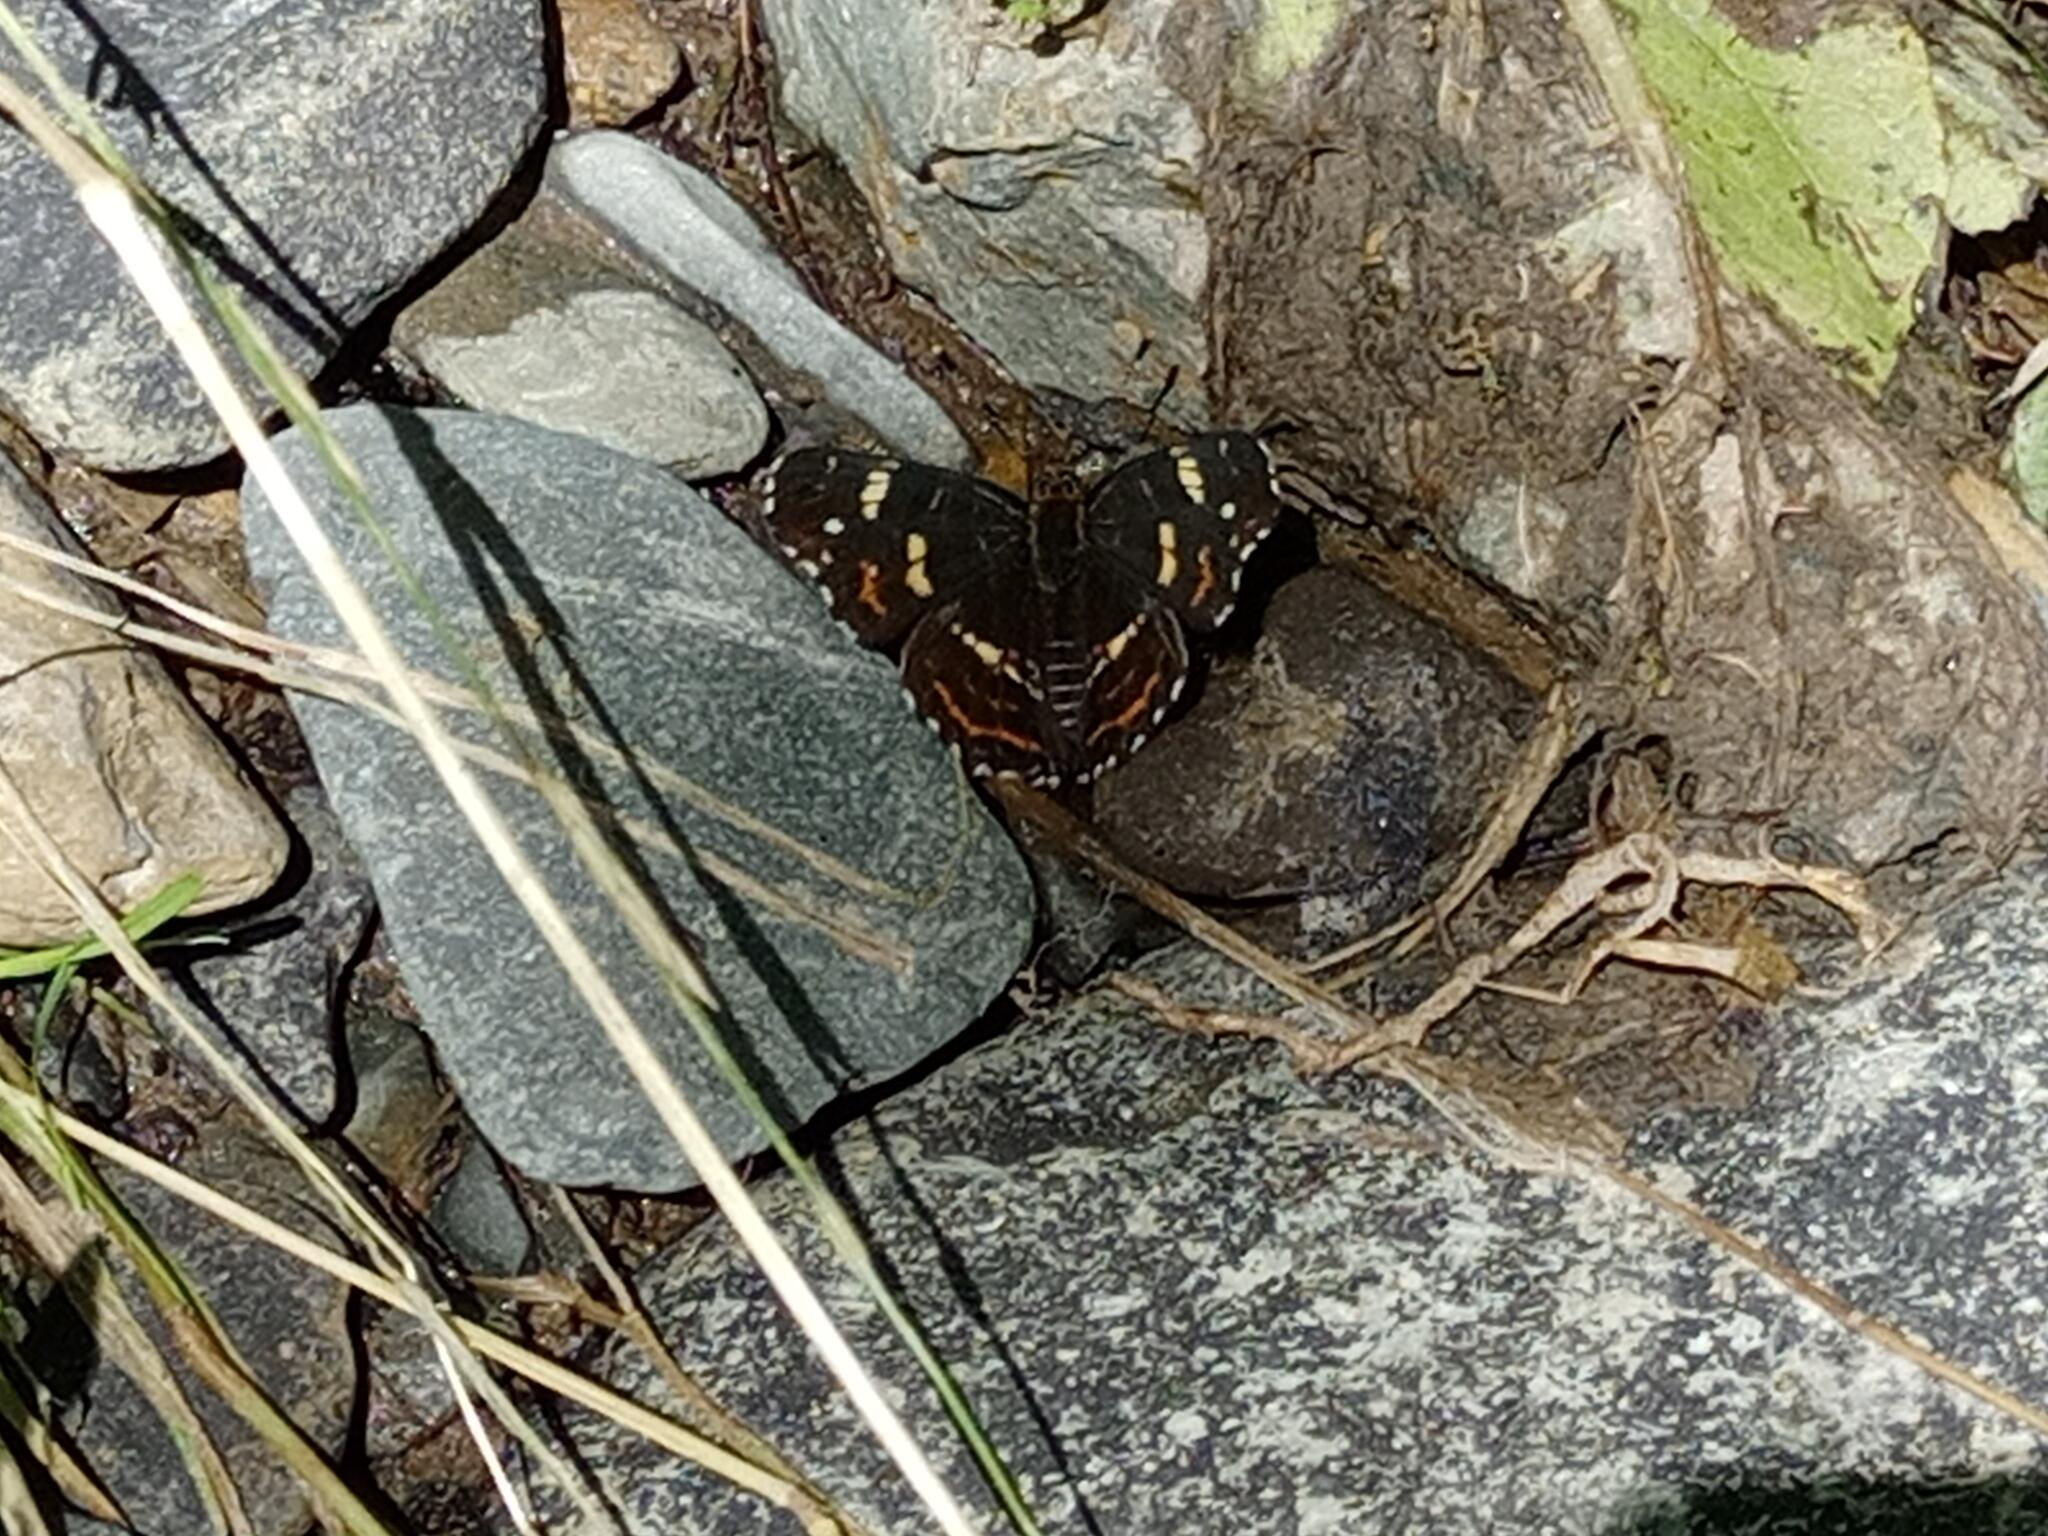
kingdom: Animalia
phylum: Arthropoda
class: Insecta
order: Lepidoptera
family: Nymphalidae
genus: Araschnia
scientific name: Araschnia levana
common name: Map butterfly
